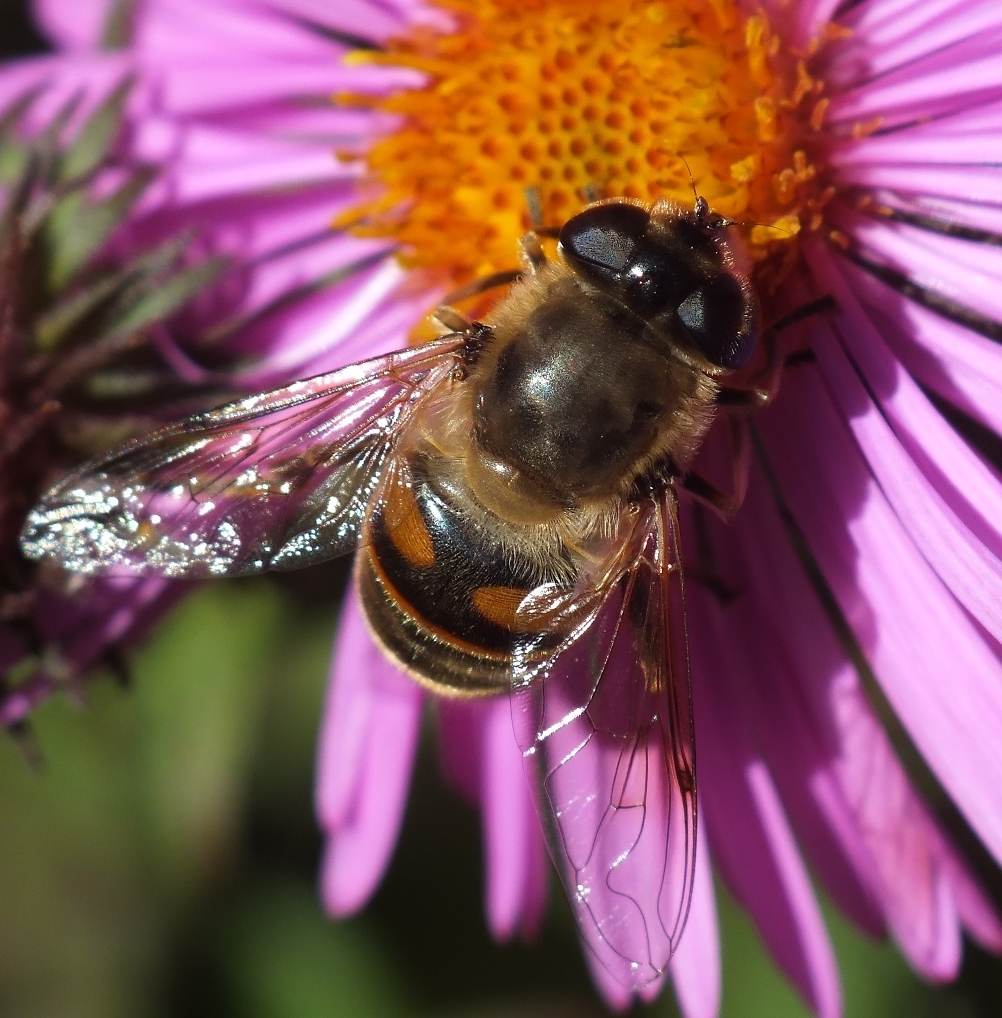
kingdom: Animalia
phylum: Arthropoda
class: Insecta
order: Diptera
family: Syrphidae
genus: Eristalis
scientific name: Eristalis tenax
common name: Drone fly
